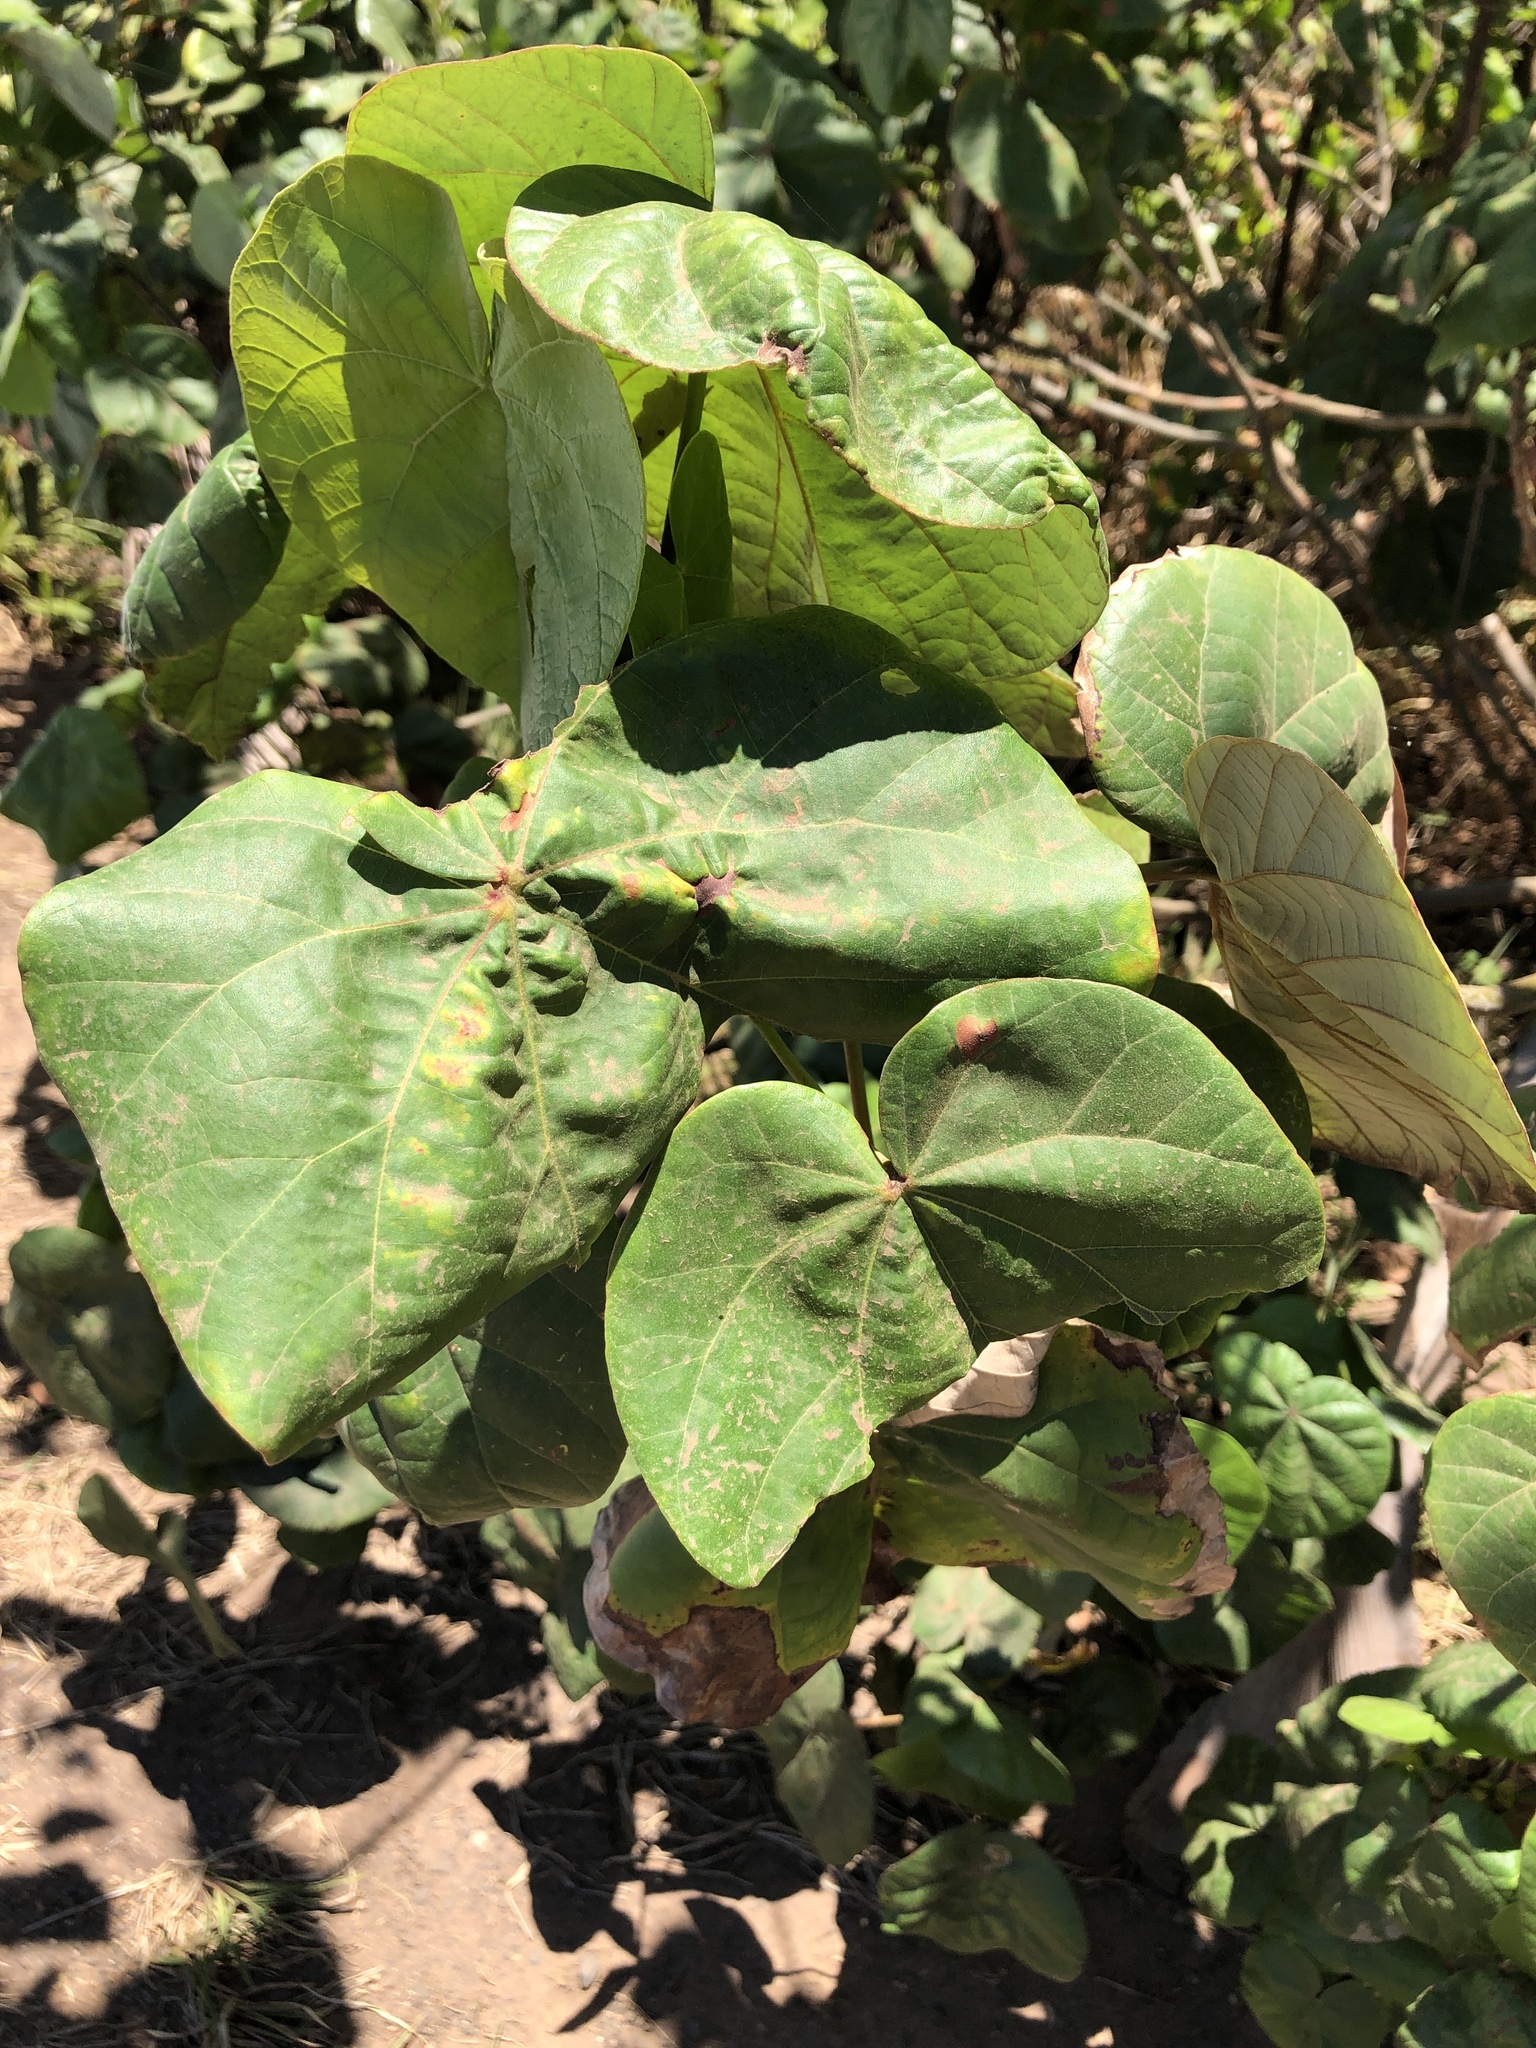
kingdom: Plantae
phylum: Tracheophyta
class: Magnoliopsida
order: Malvales
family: Malvaceae
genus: Talipariti
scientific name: Talipariti tiliaceum
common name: Sea hibiscus
